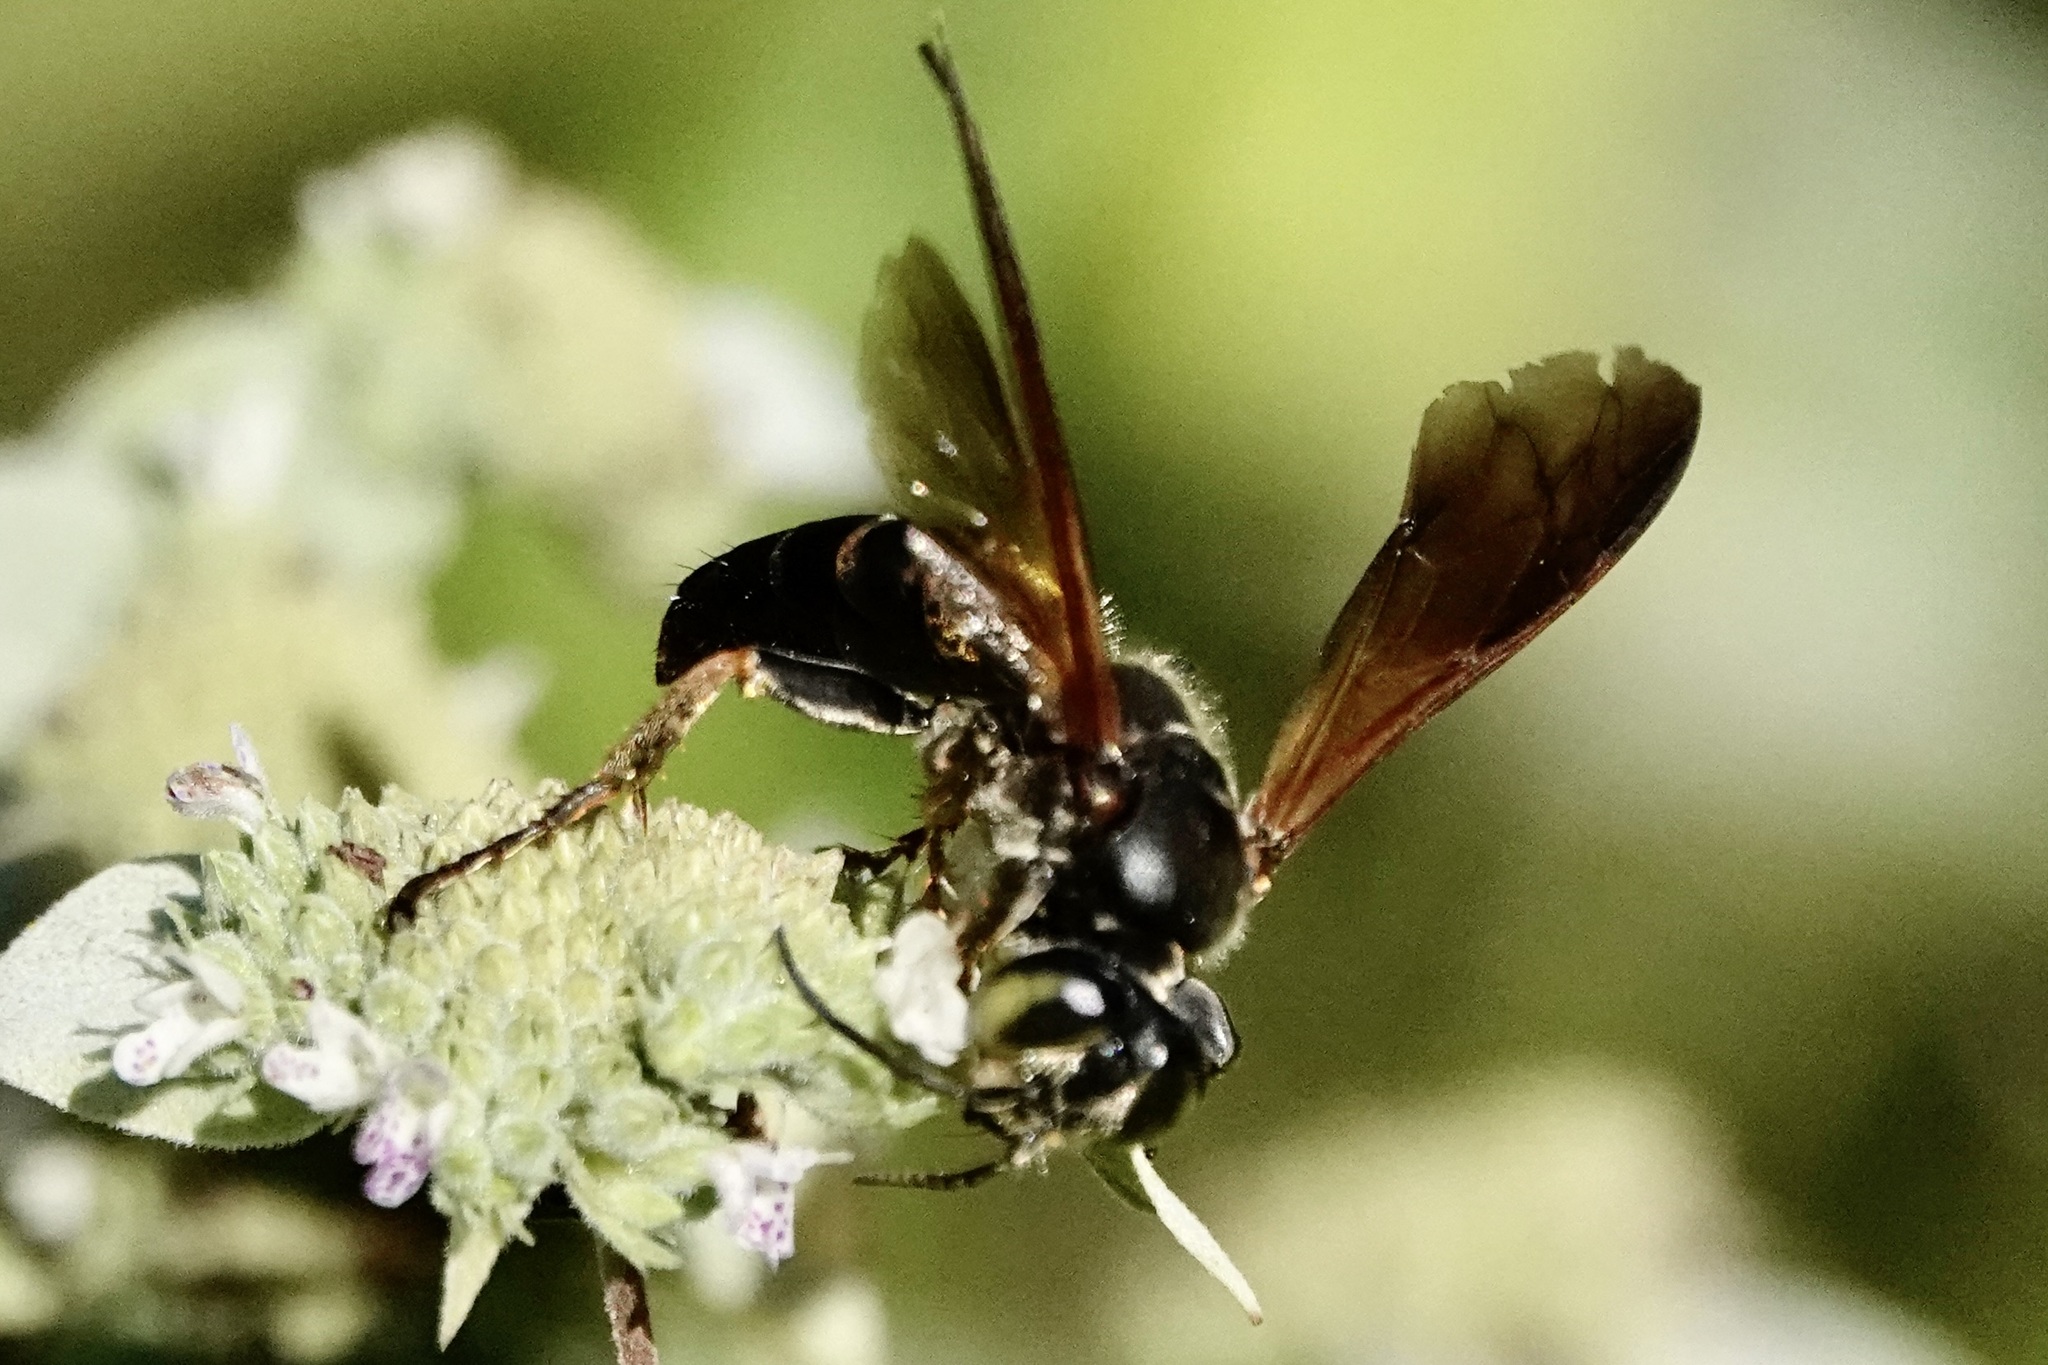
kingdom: Animalia
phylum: Arthropoda
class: Insecta
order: Hymenoptera
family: Crabronidae
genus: Tachytes
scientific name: Tachytes guatemalensis
